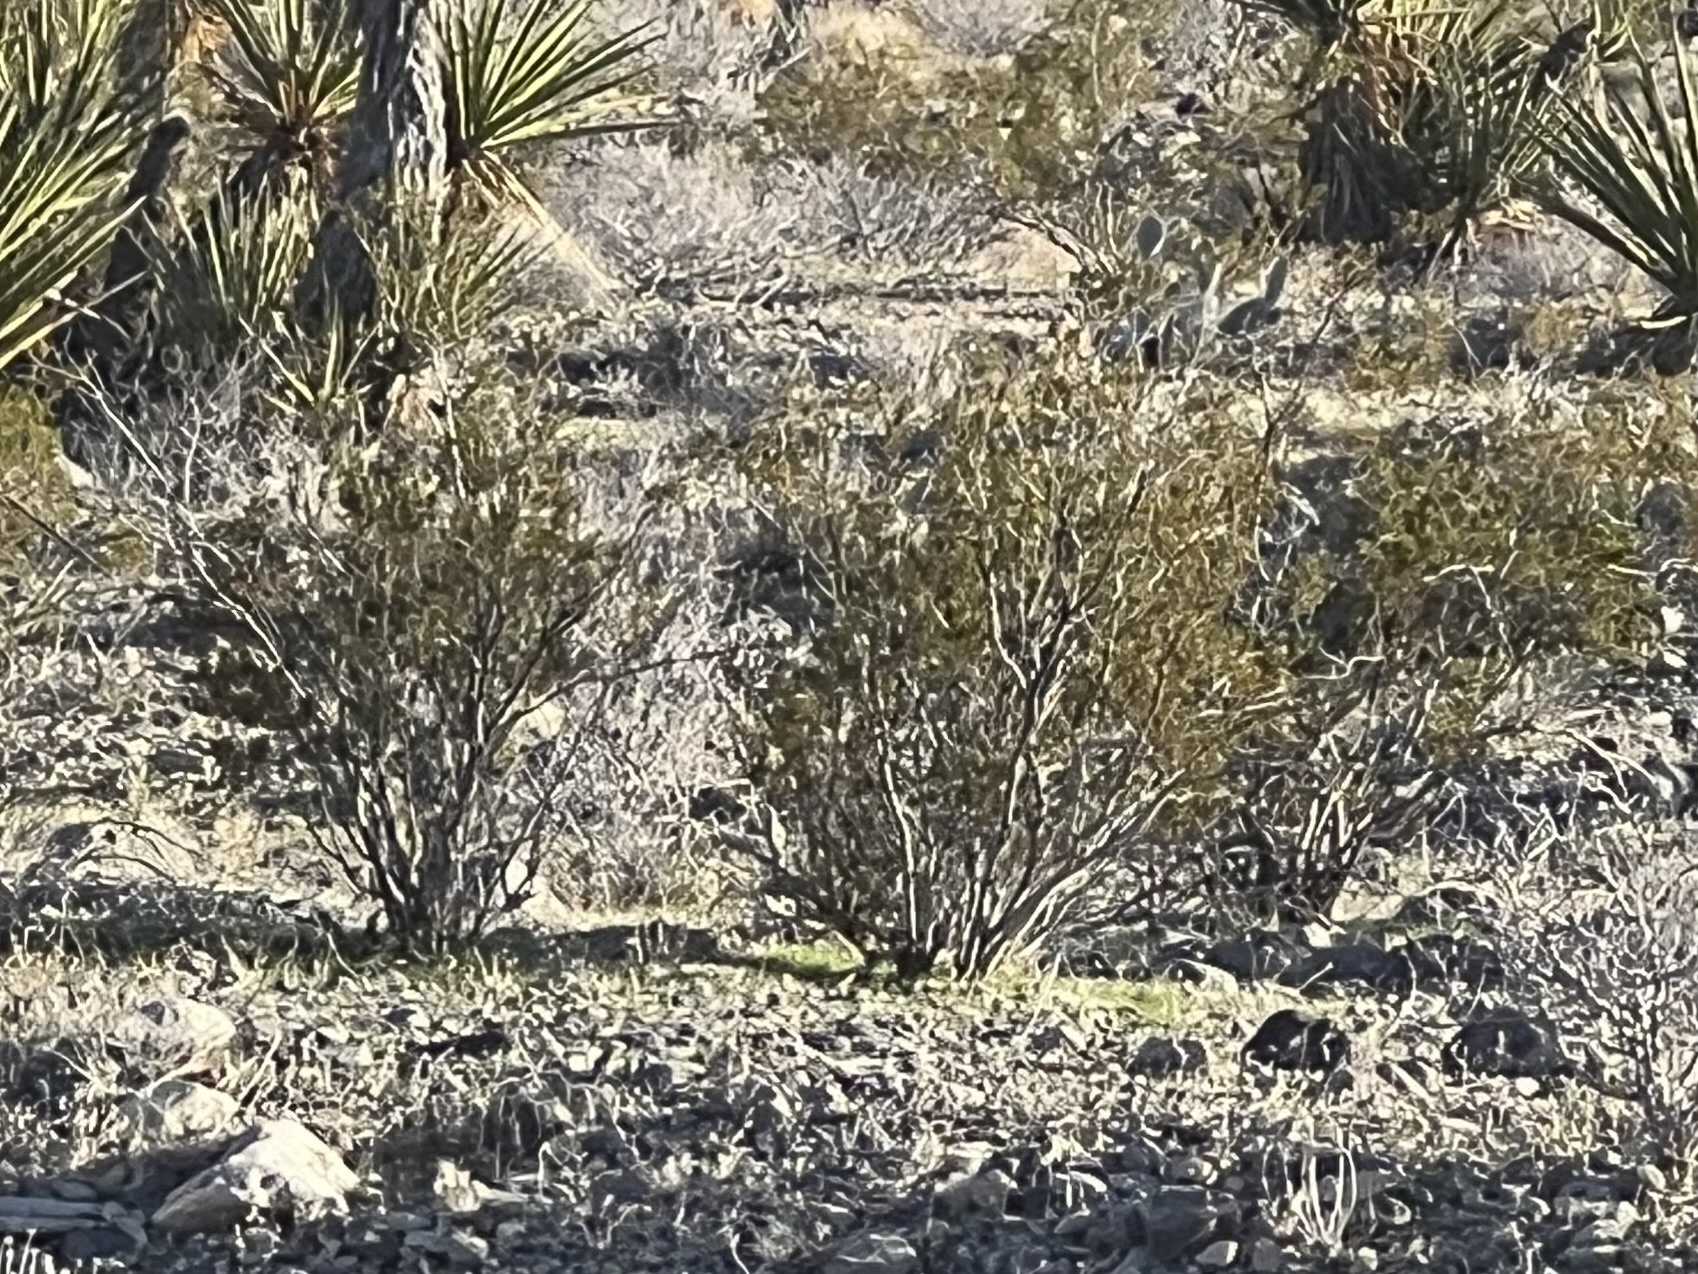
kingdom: Plantae
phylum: Tracheophyta
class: Magnoliopsida
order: Zygophyllales
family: Zygophyllaceae
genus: Larrea
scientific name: Larrea tridentata
